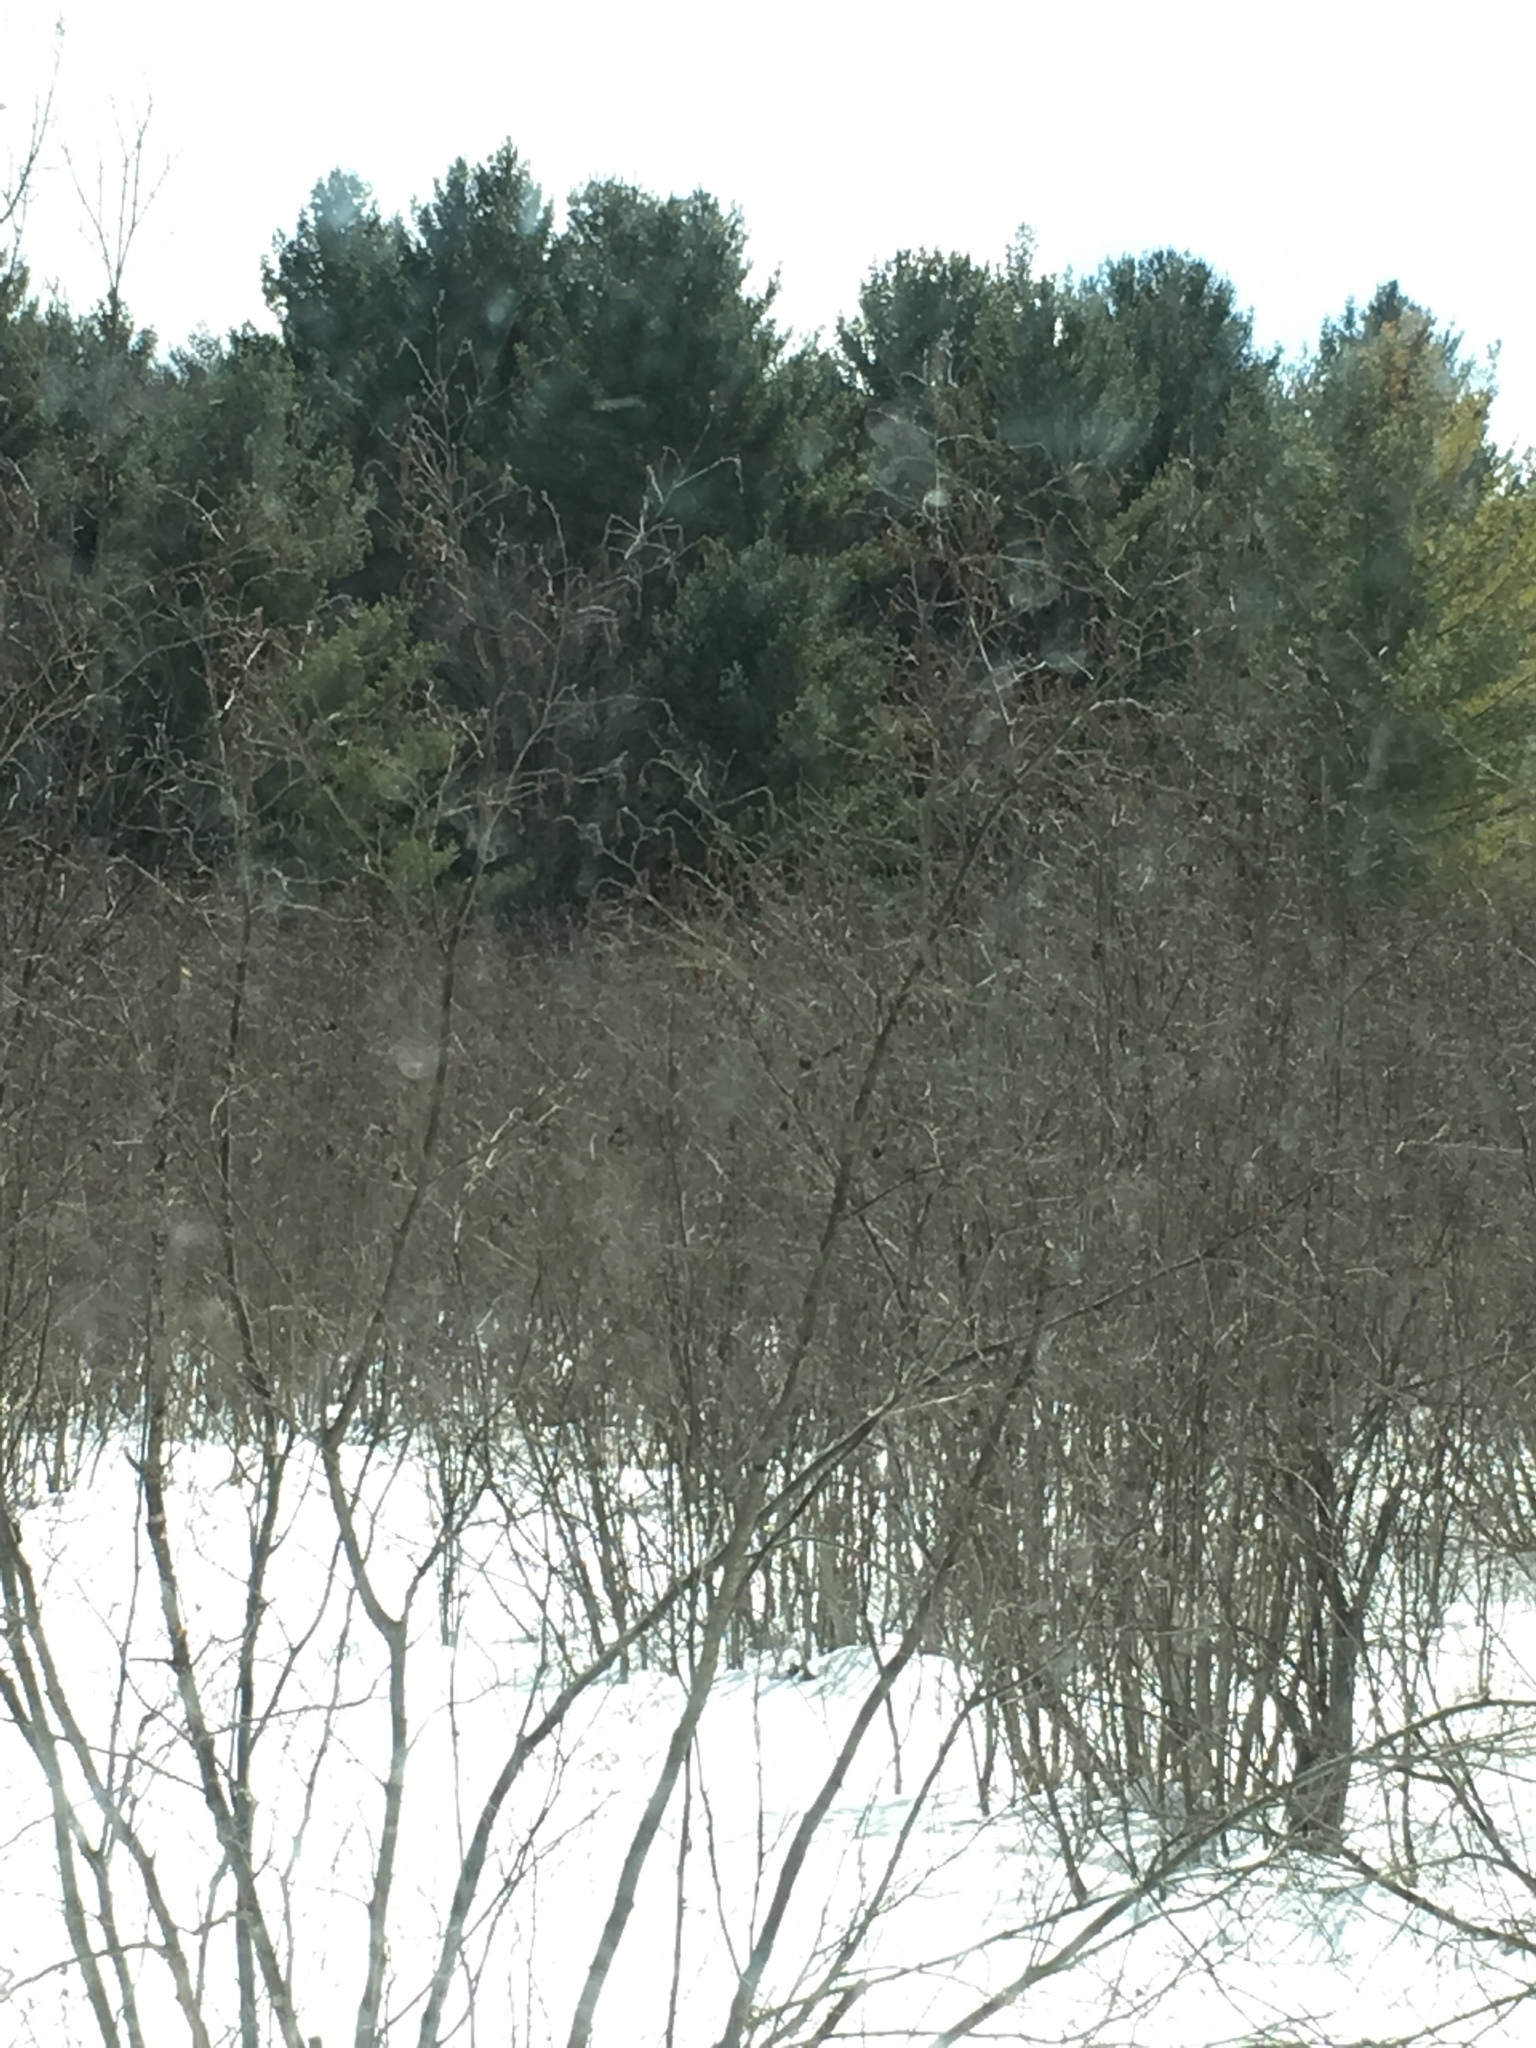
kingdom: Plantae
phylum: Tracheophyta
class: Pinopsida
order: Pinales
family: Pinaceae
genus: Pinus
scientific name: Pinus strobus
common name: Weymouth pine
